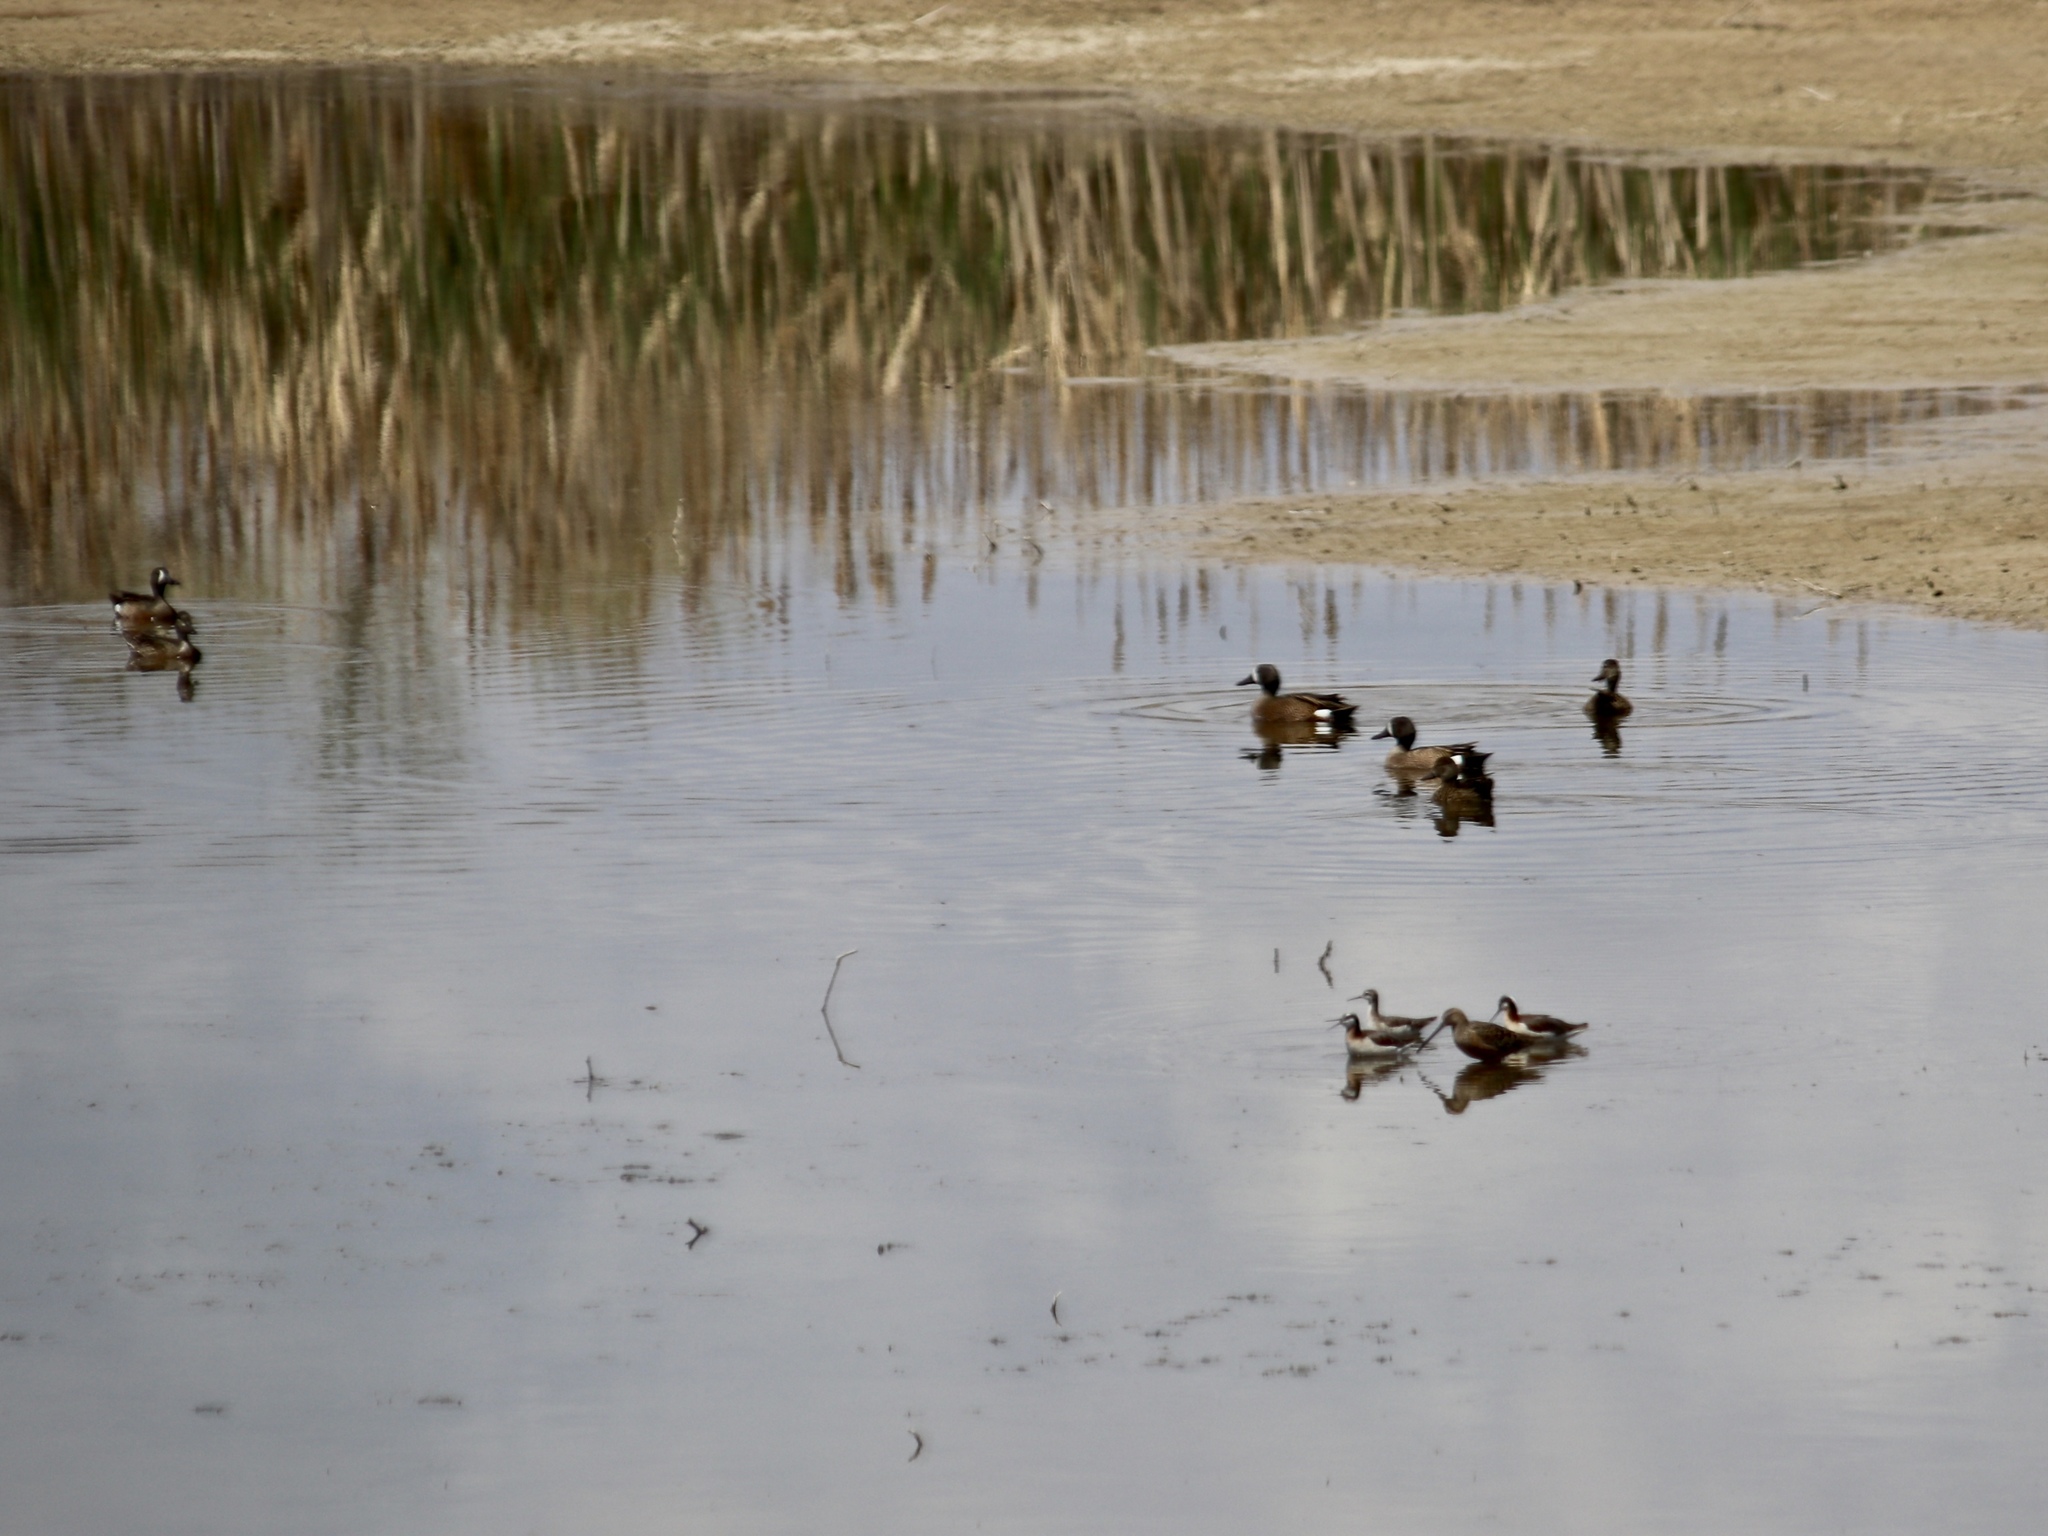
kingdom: Animalia
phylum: Chordata
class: Aves
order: Anseriformes
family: Anatidae
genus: Spatula
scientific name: Spatula discors
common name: Blue-winged teal
